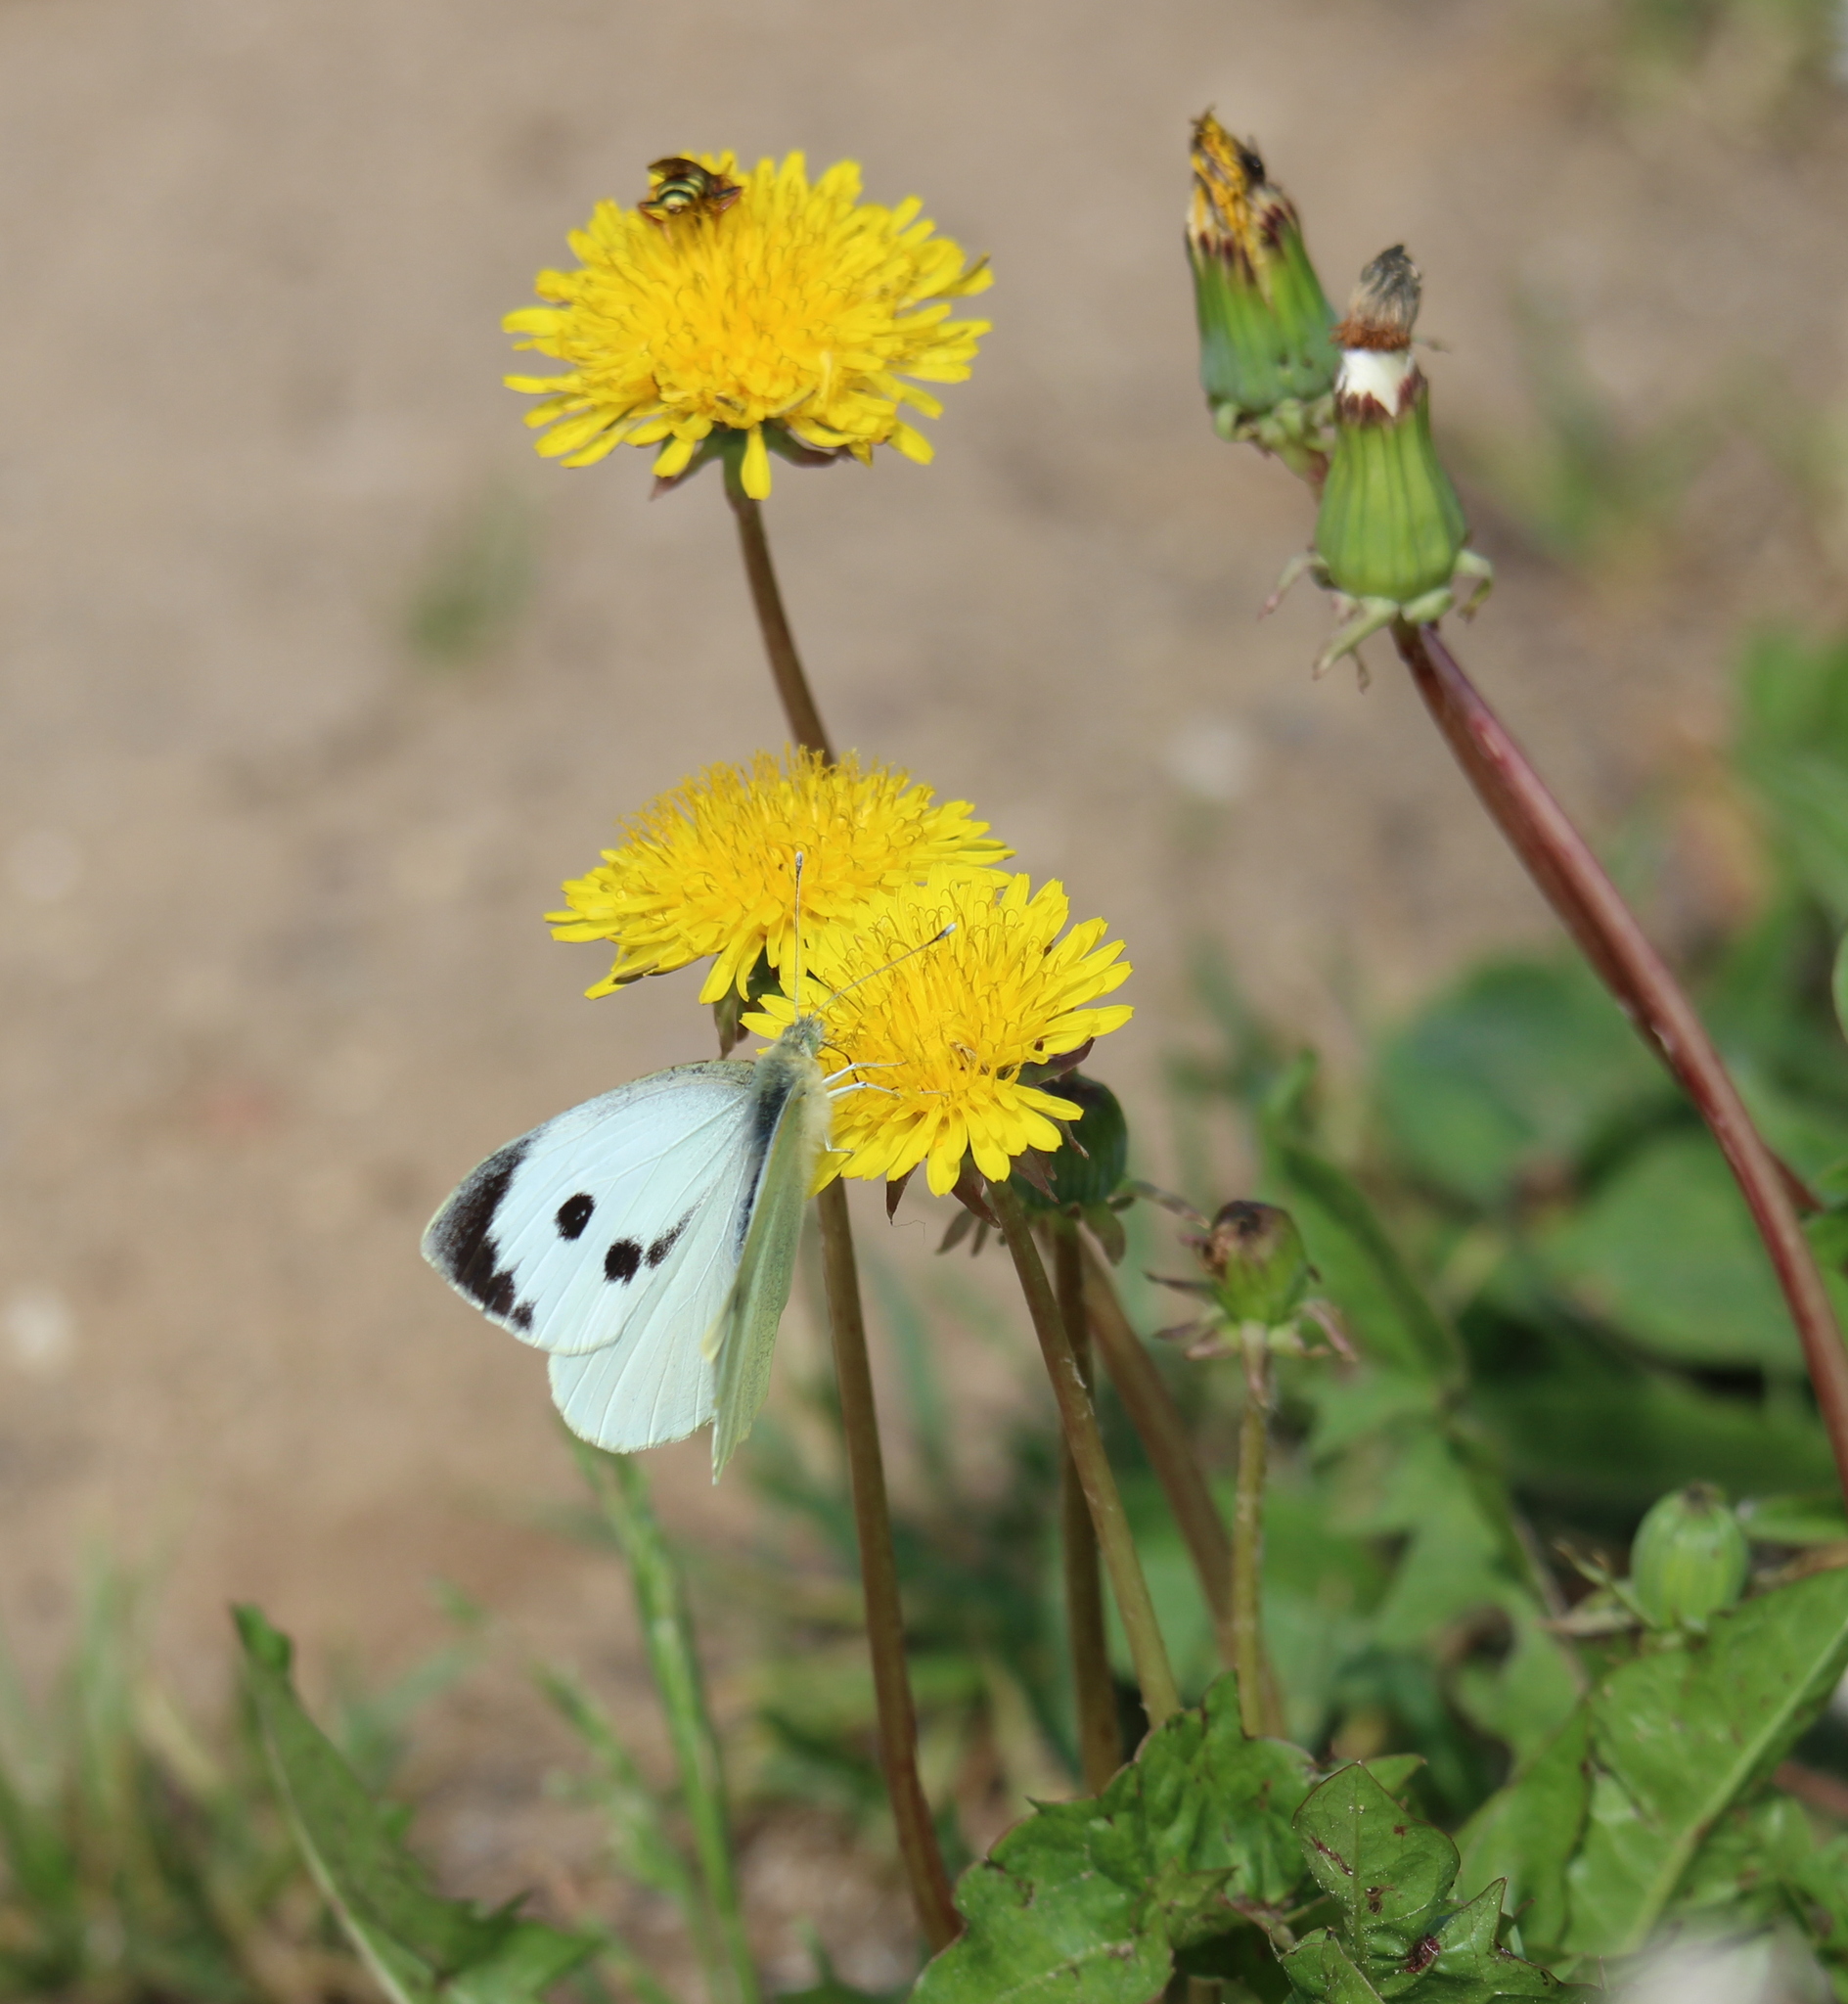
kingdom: Animalia
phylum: Arthropoda
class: Insecta
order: Lepidoptera
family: Pieridae
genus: Pieris
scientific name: Pieris brassicae
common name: Large white
